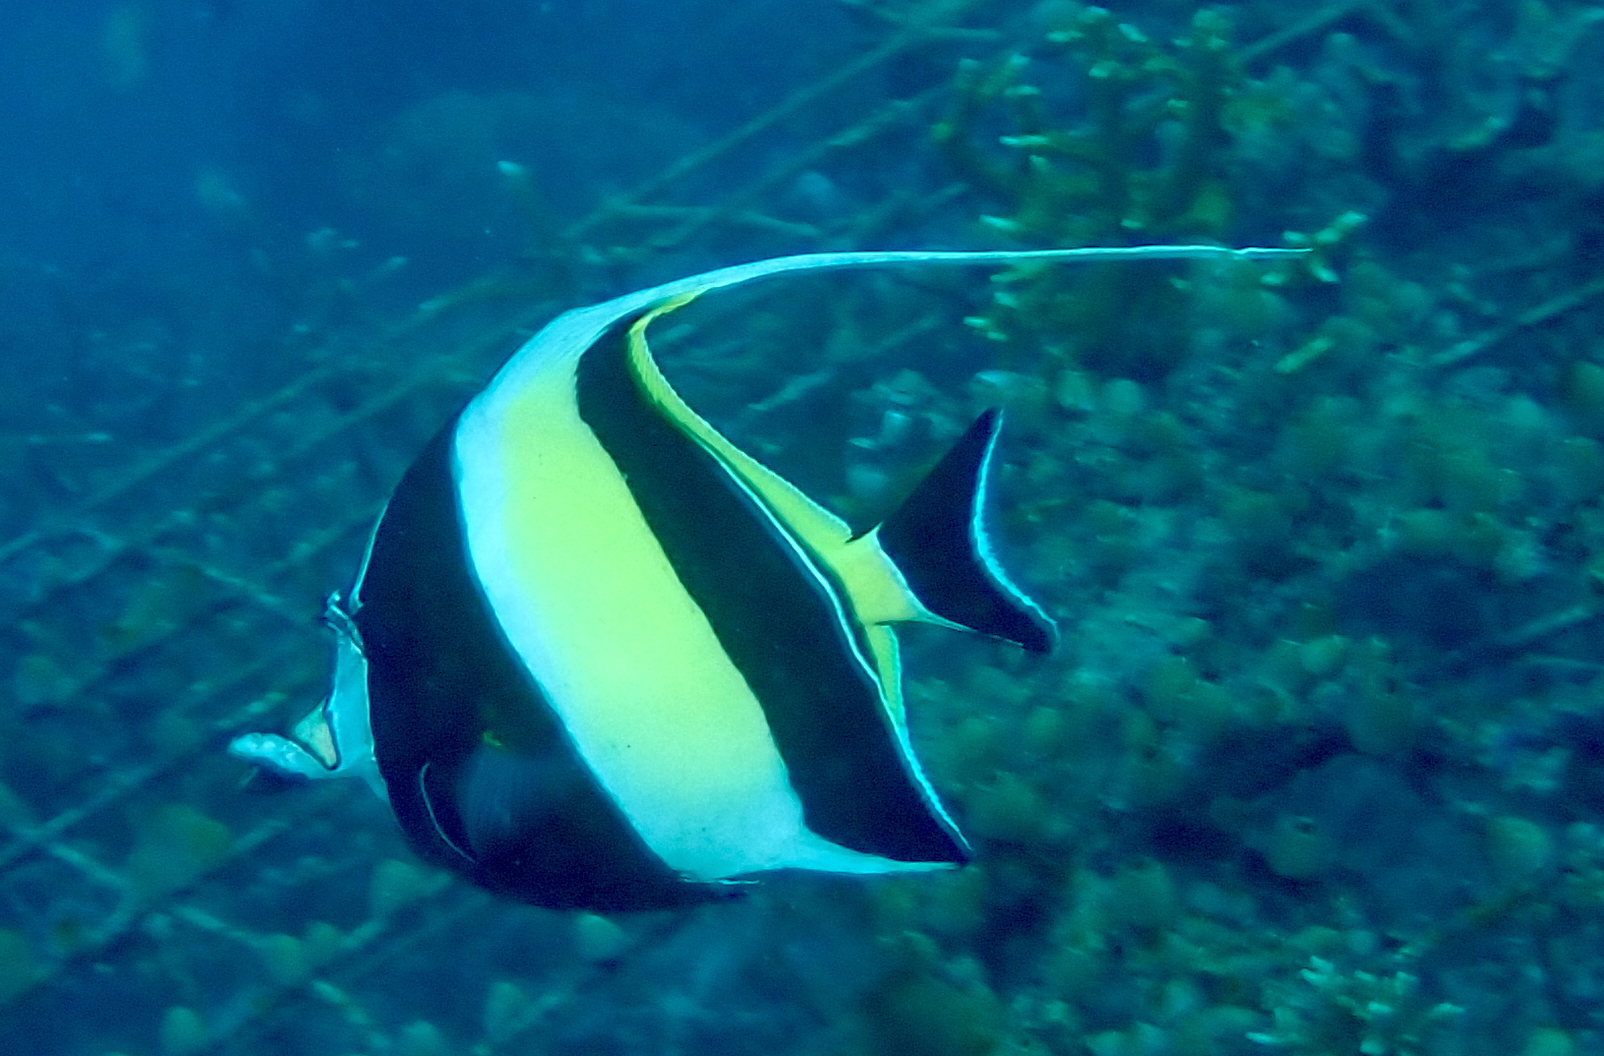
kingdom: Animalia
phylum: Chordata
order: Perciformes
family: Zanclidae
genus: Zanclus
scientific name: Zanclus cornutus
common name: Moorish idol
